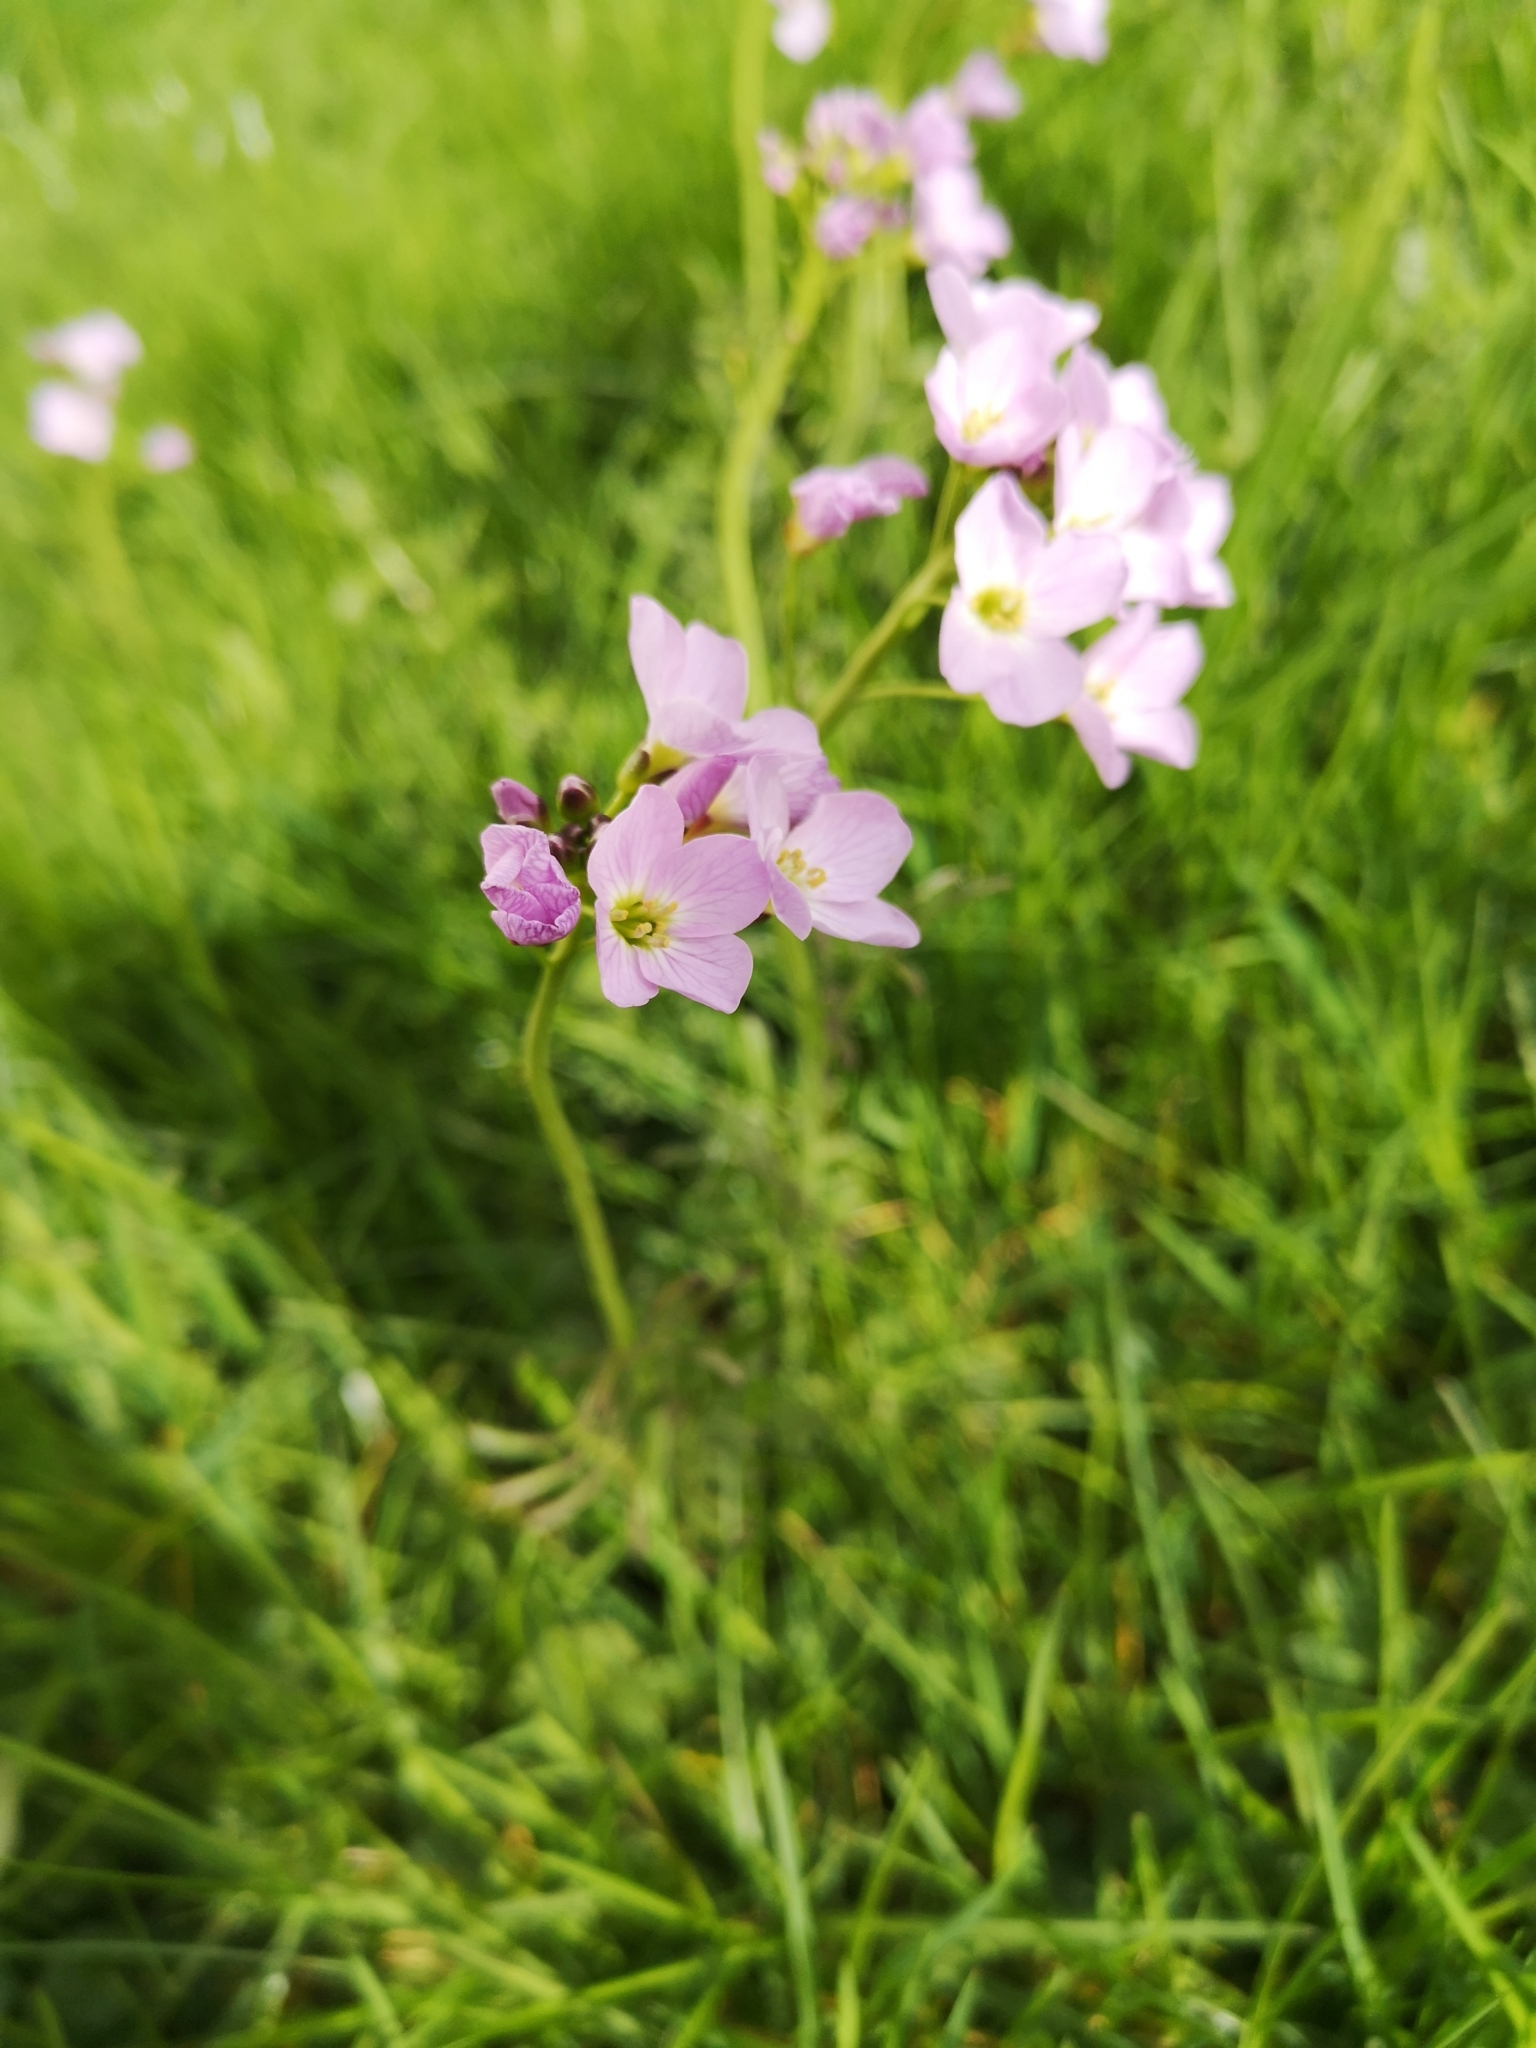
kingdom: Plantae
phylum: Tracheophyta
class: Magnoliopsida
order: Brassicales
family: Brassicaceae
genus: Cardamine
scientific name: Cardamine pratensis
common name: Cuckoo flower
